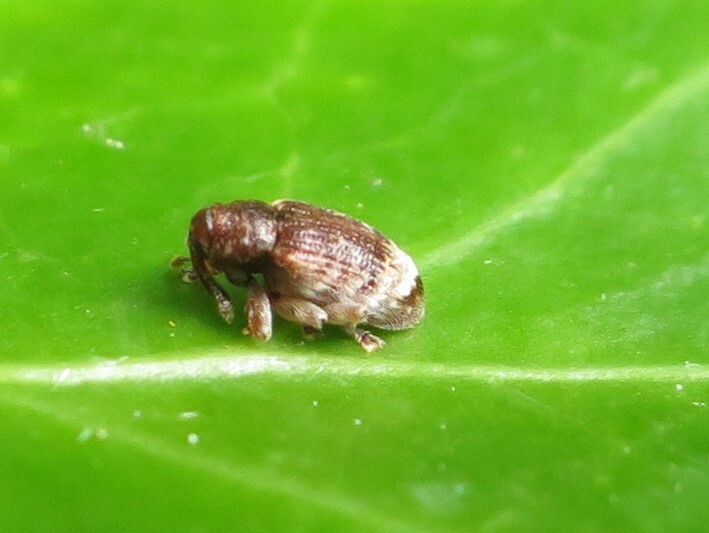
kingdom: Animalia
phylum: Arthropoda
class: Insecta
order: Coleoptera
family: Curculionidae
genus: Aneuma
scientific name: Aneuma fasciatum
